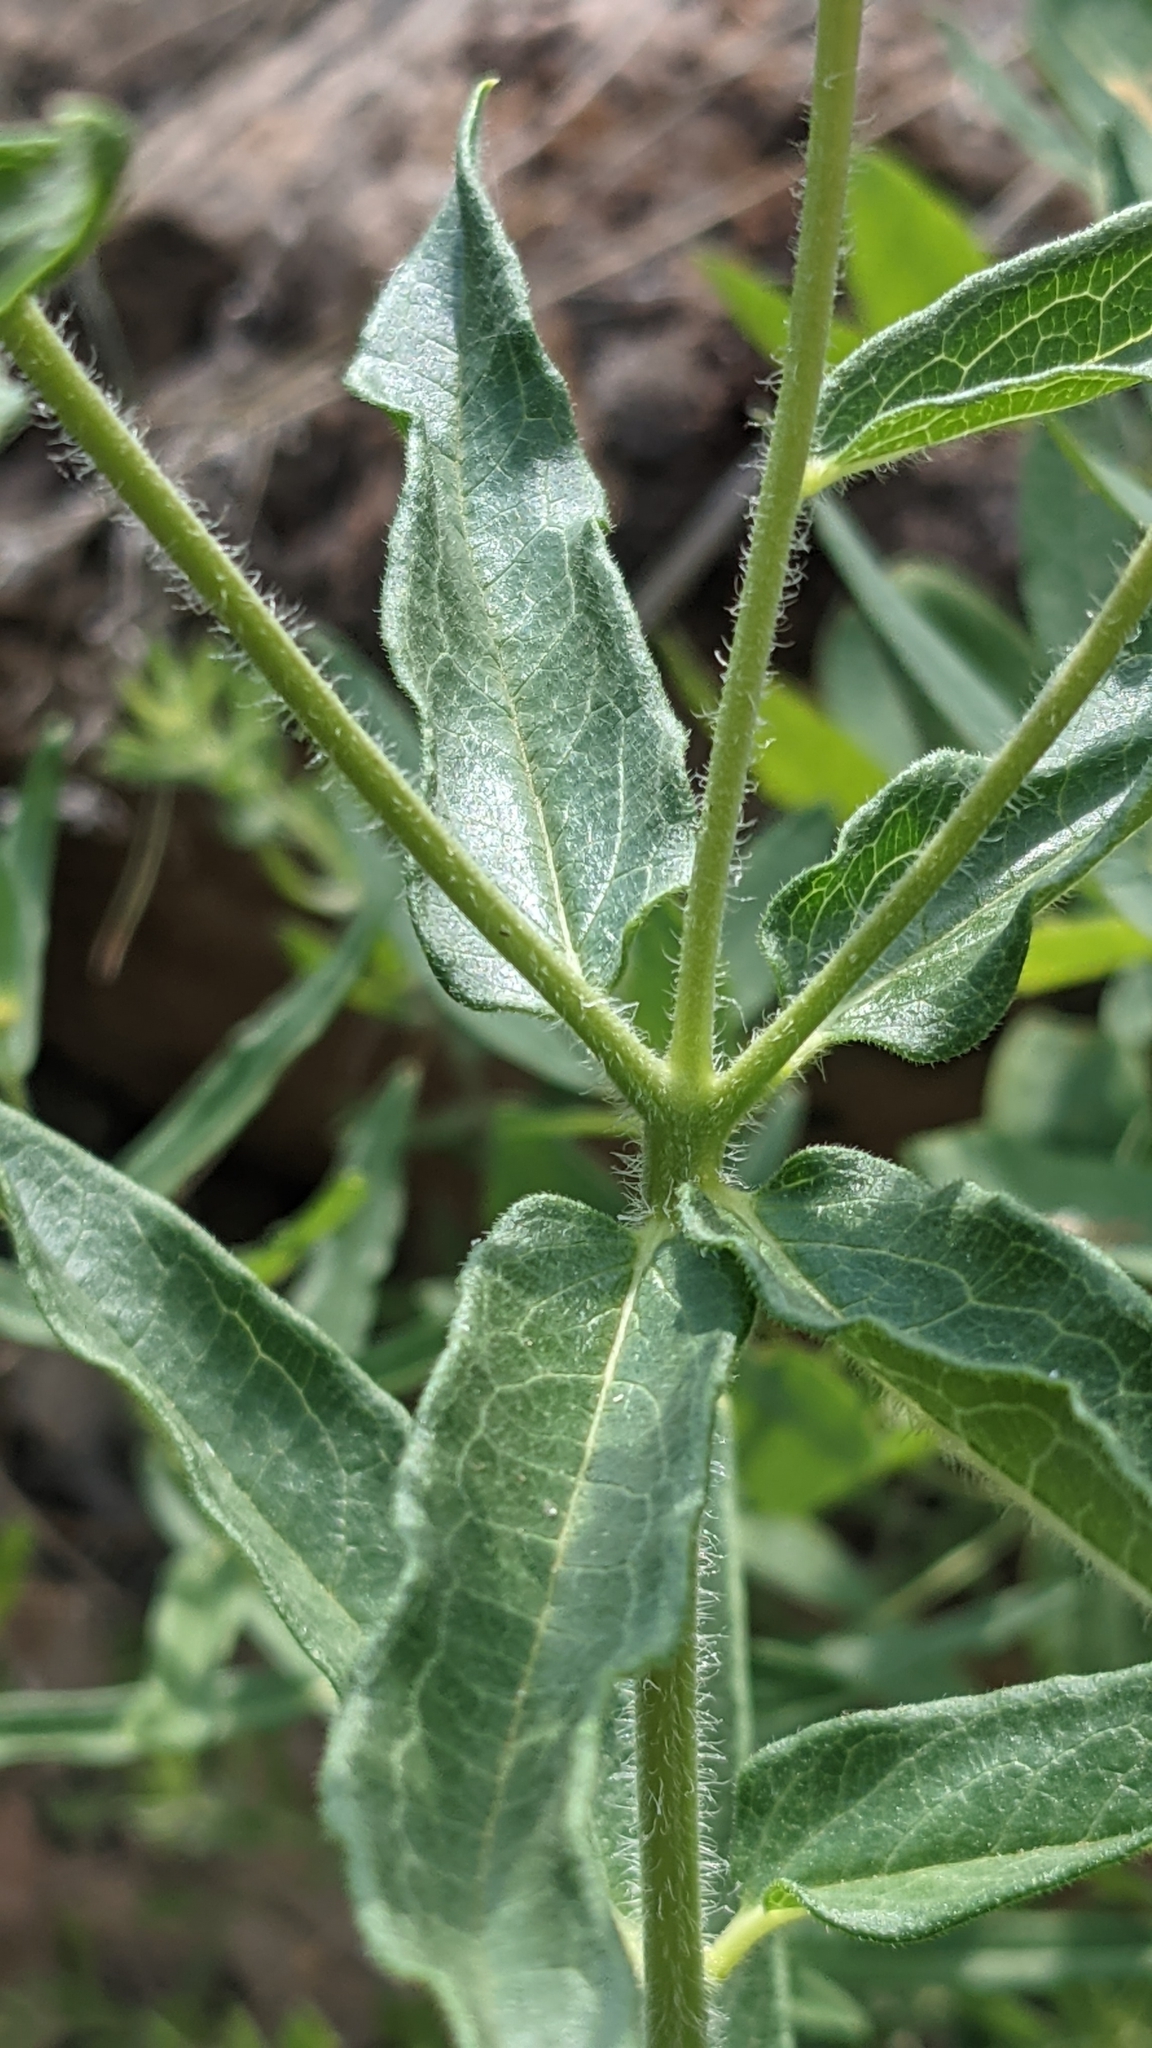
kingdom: Plantae
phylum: Tracheophyta
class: Magnoliopsida
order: Gentianales
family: Apocynaceae
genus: Asclepias
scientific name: Asclepias tuberosa
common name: Butterfly milkweed
